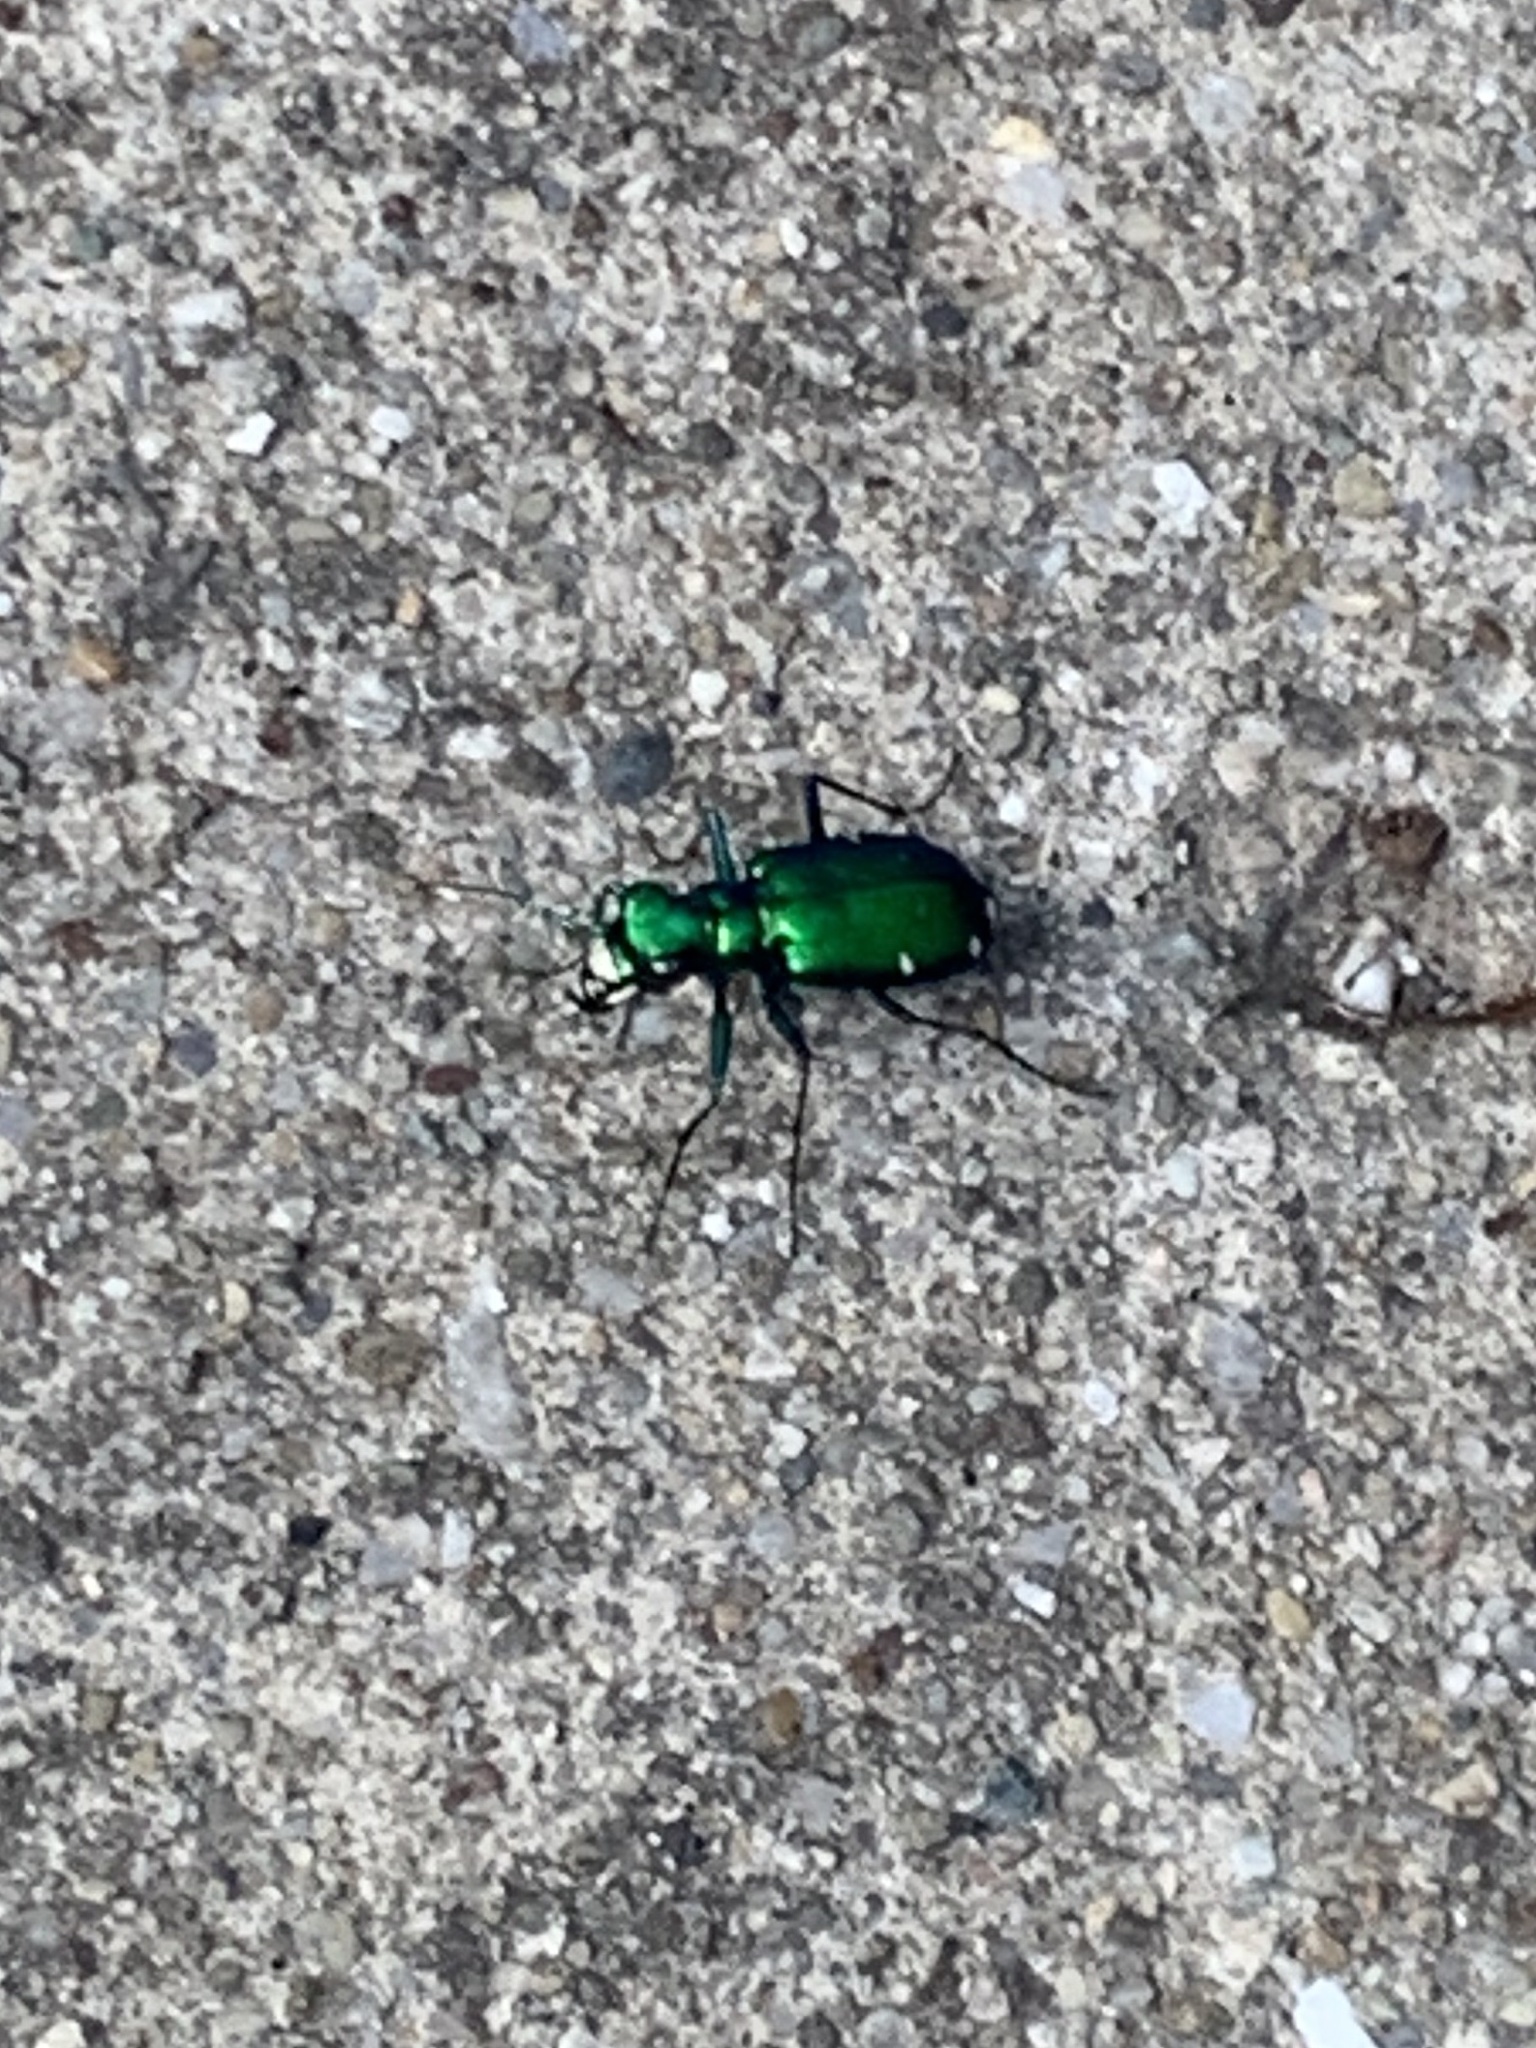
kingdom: Animalia
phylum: Arthropoda
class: Insecta
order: Coleoptera
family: Carabidae
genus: Cicindela
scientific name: Cicindela sexguttata
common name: Six-spotted tiger beetle
